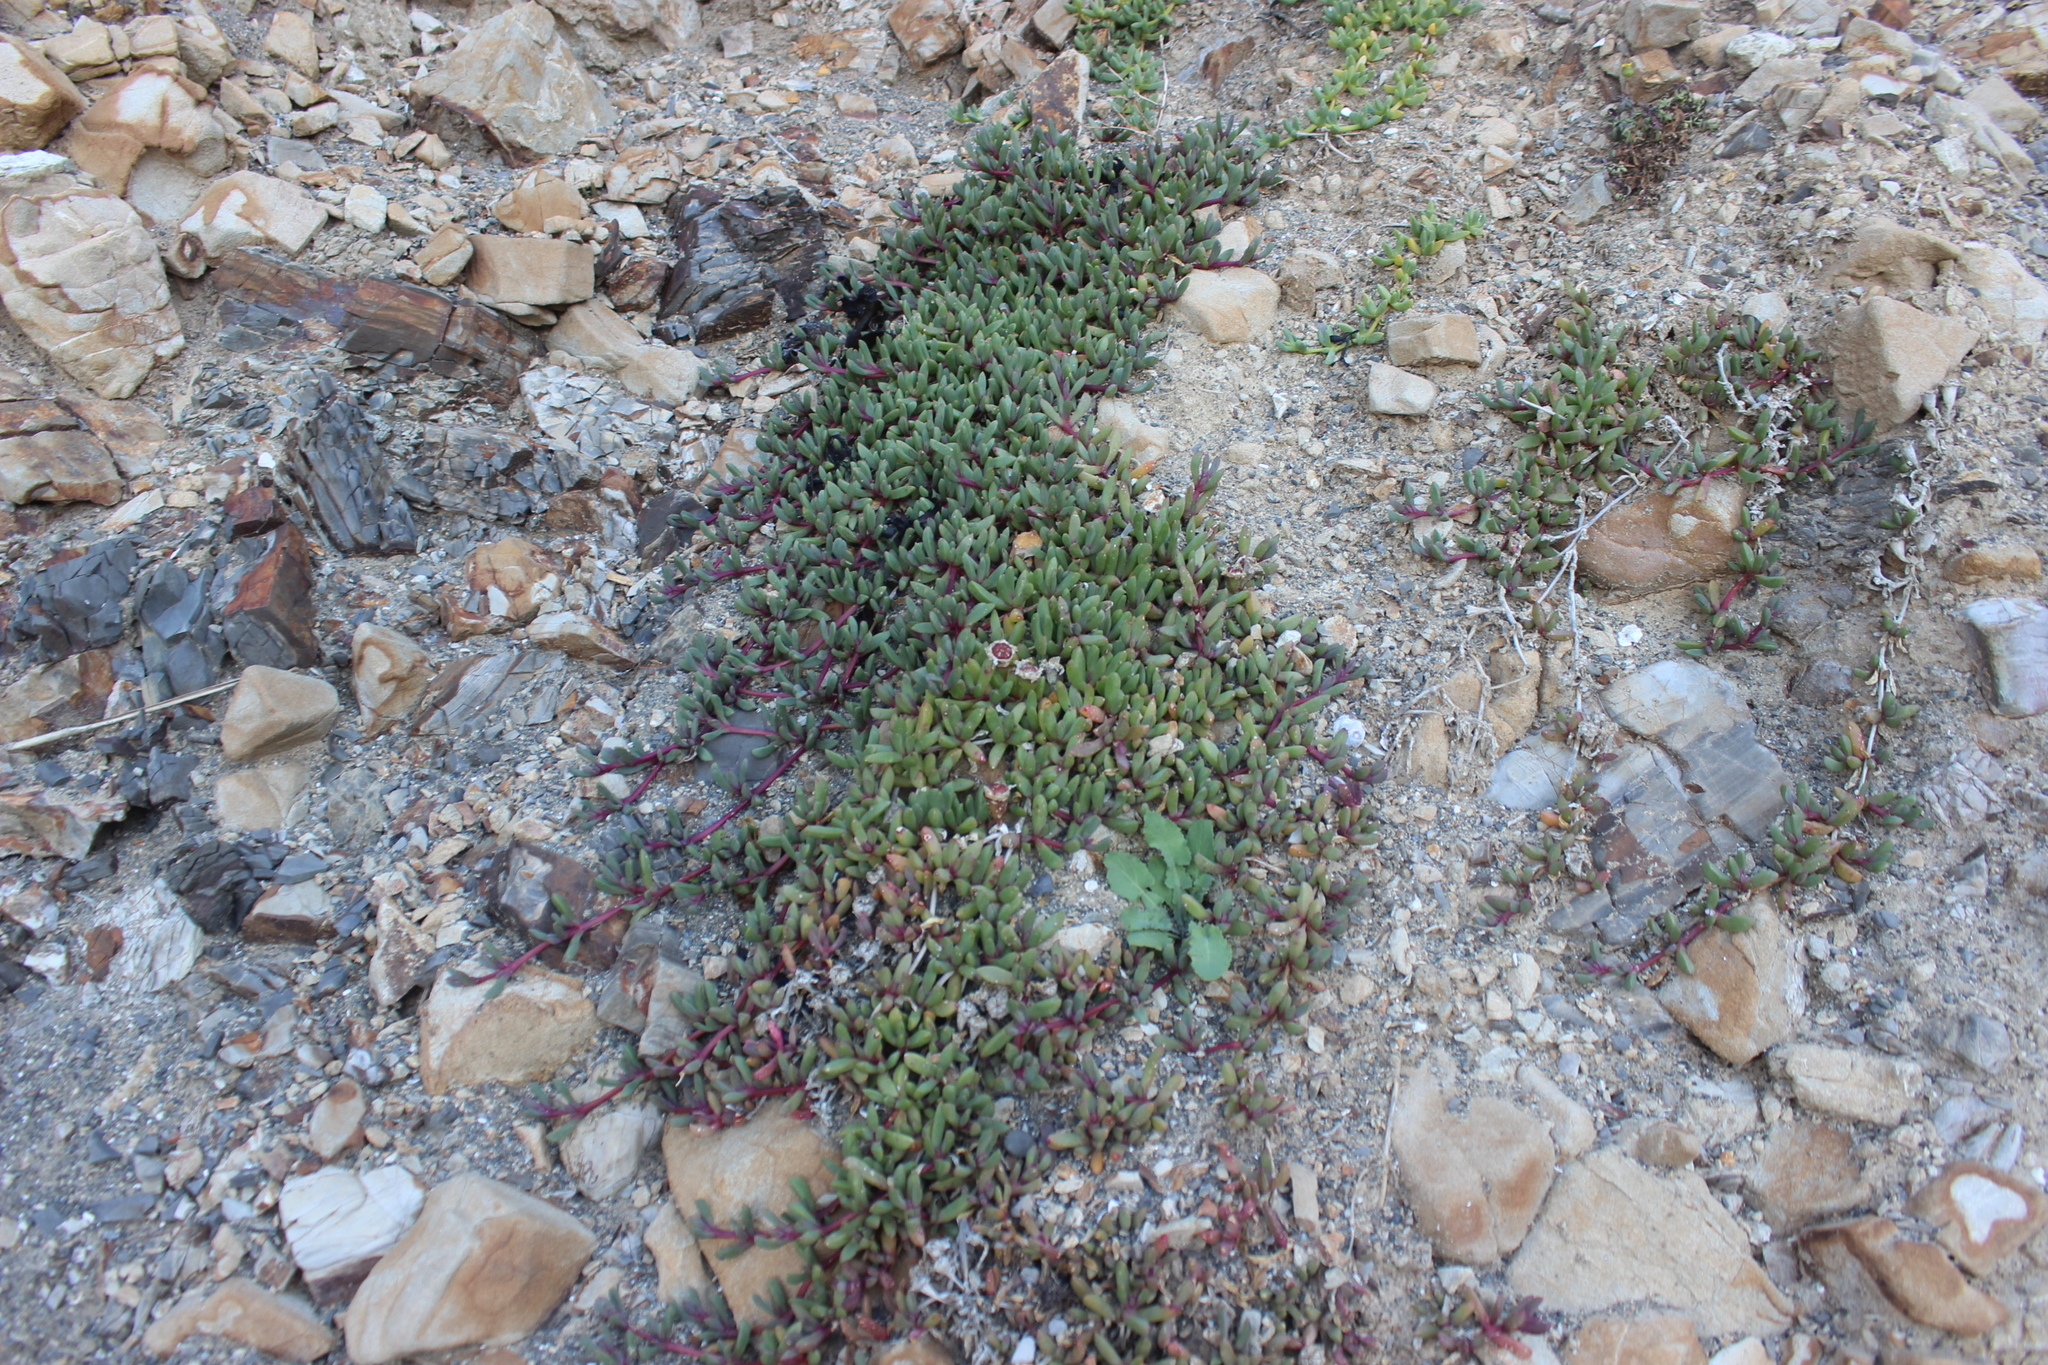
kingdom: Plantae
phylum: Tracheophyta
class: Magnoliopsida
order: Caryophyllales
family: Aizoaceae
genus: Disphyma
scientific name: Disphyma australe
